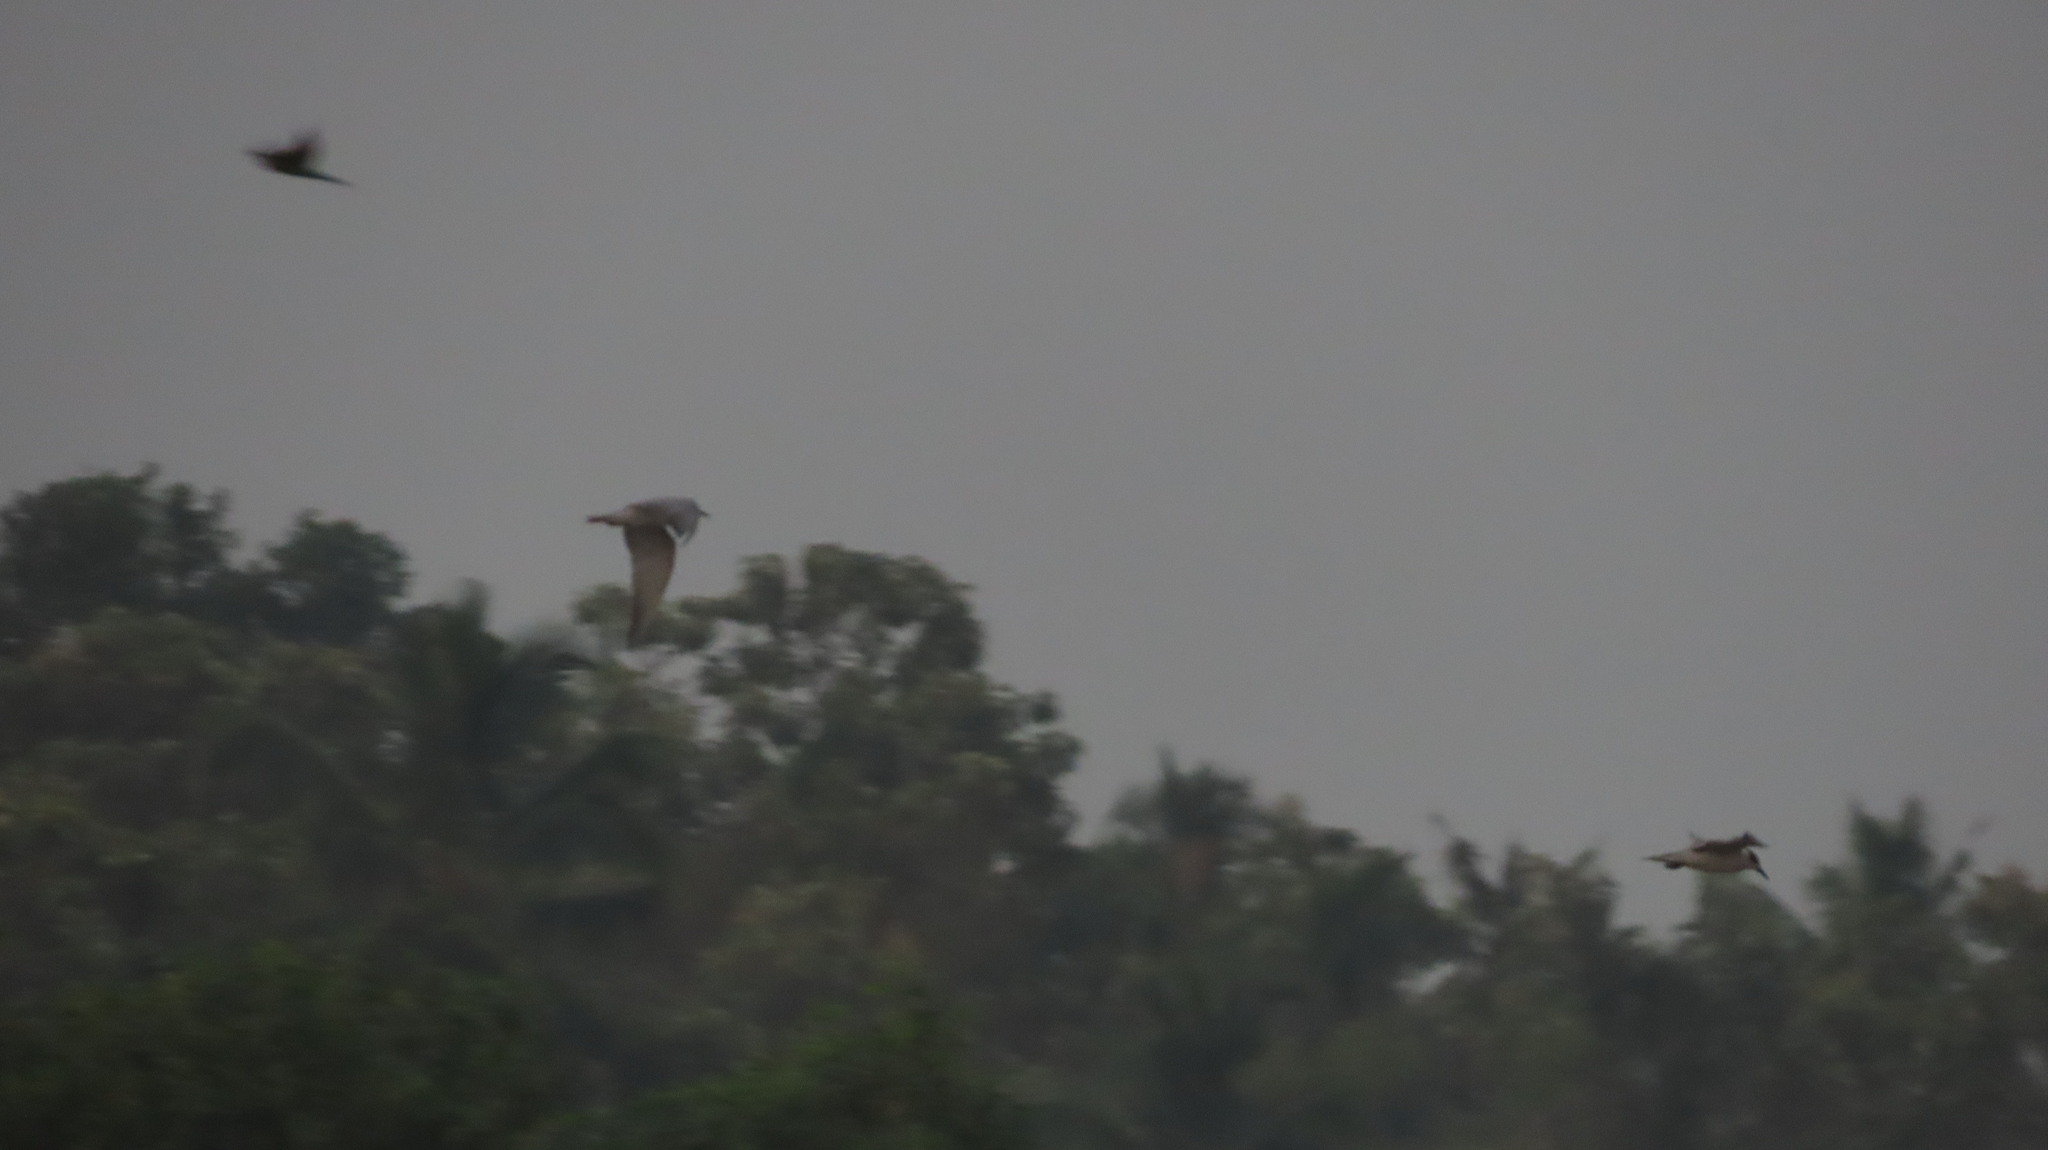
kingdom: Animalia
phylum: Chordata
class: Aves
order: Charadriiformes
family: Laridae
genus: Chlidonias
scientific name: Chlidonias hybrida
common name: Whiskered tern
